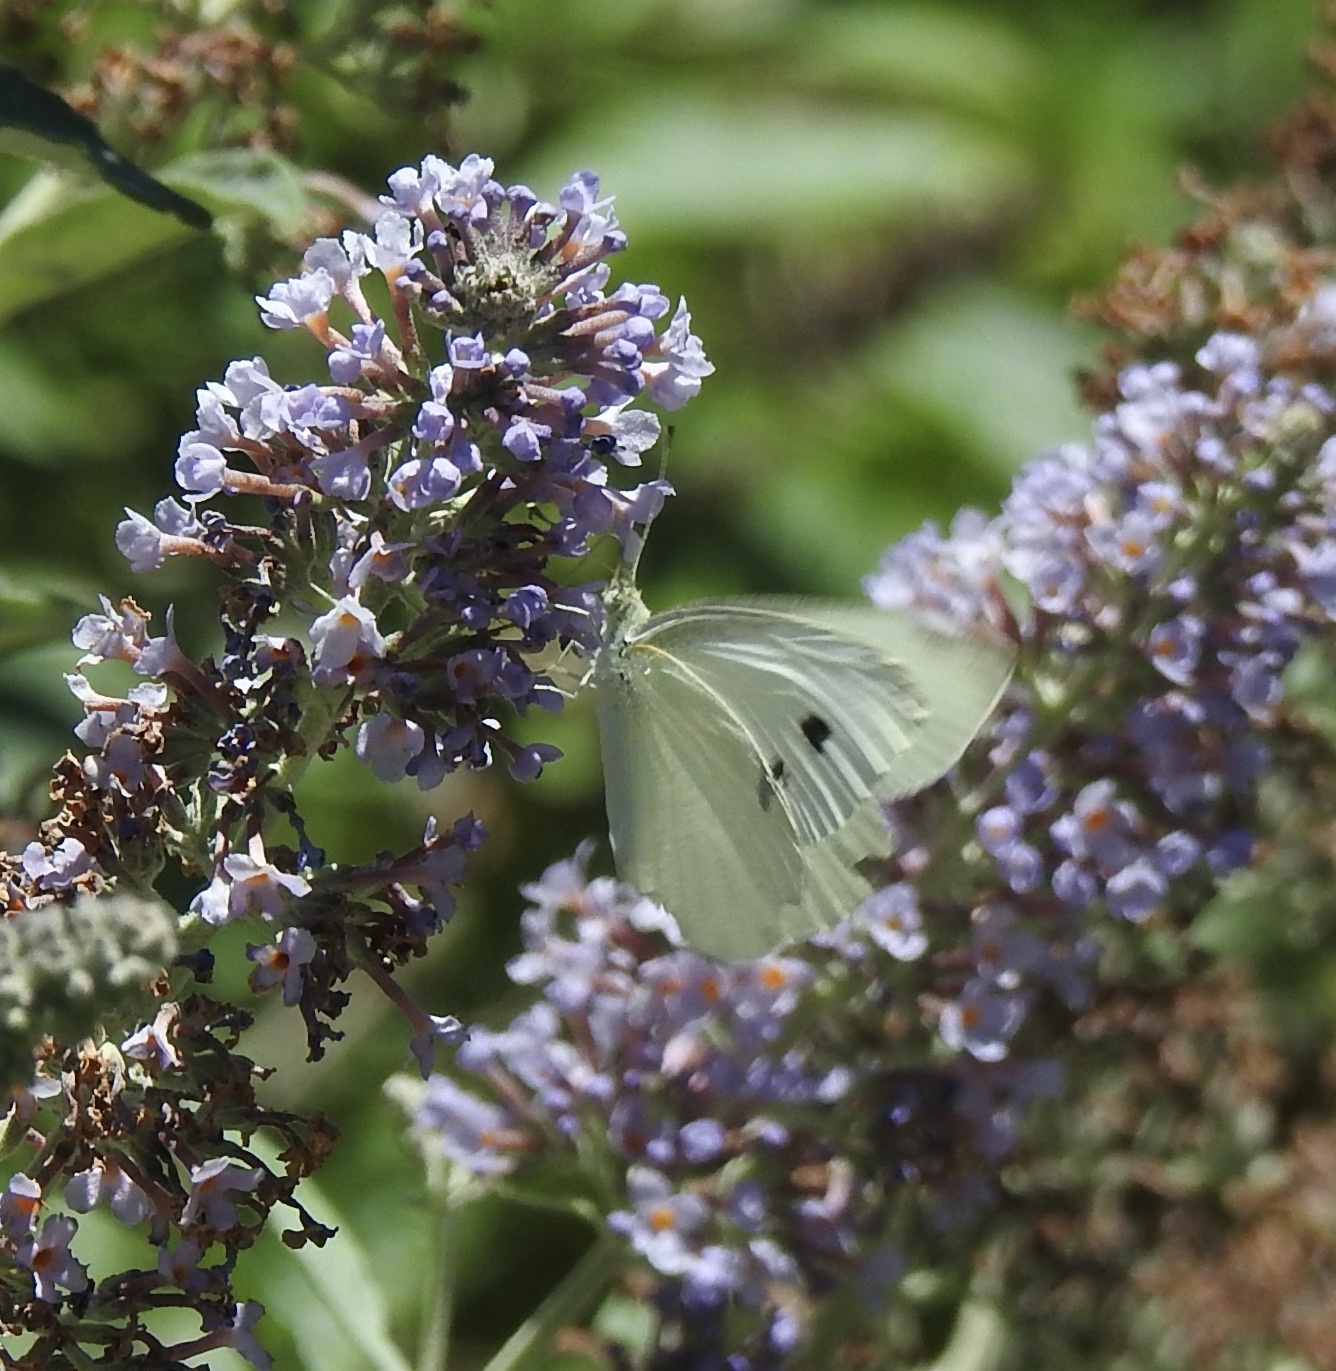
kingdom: Animalia
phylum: Arthropoda
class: Insecta
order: Lepidoptera
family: Pieridae
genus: Pieris
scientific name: Pieris rapae
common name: Small white
